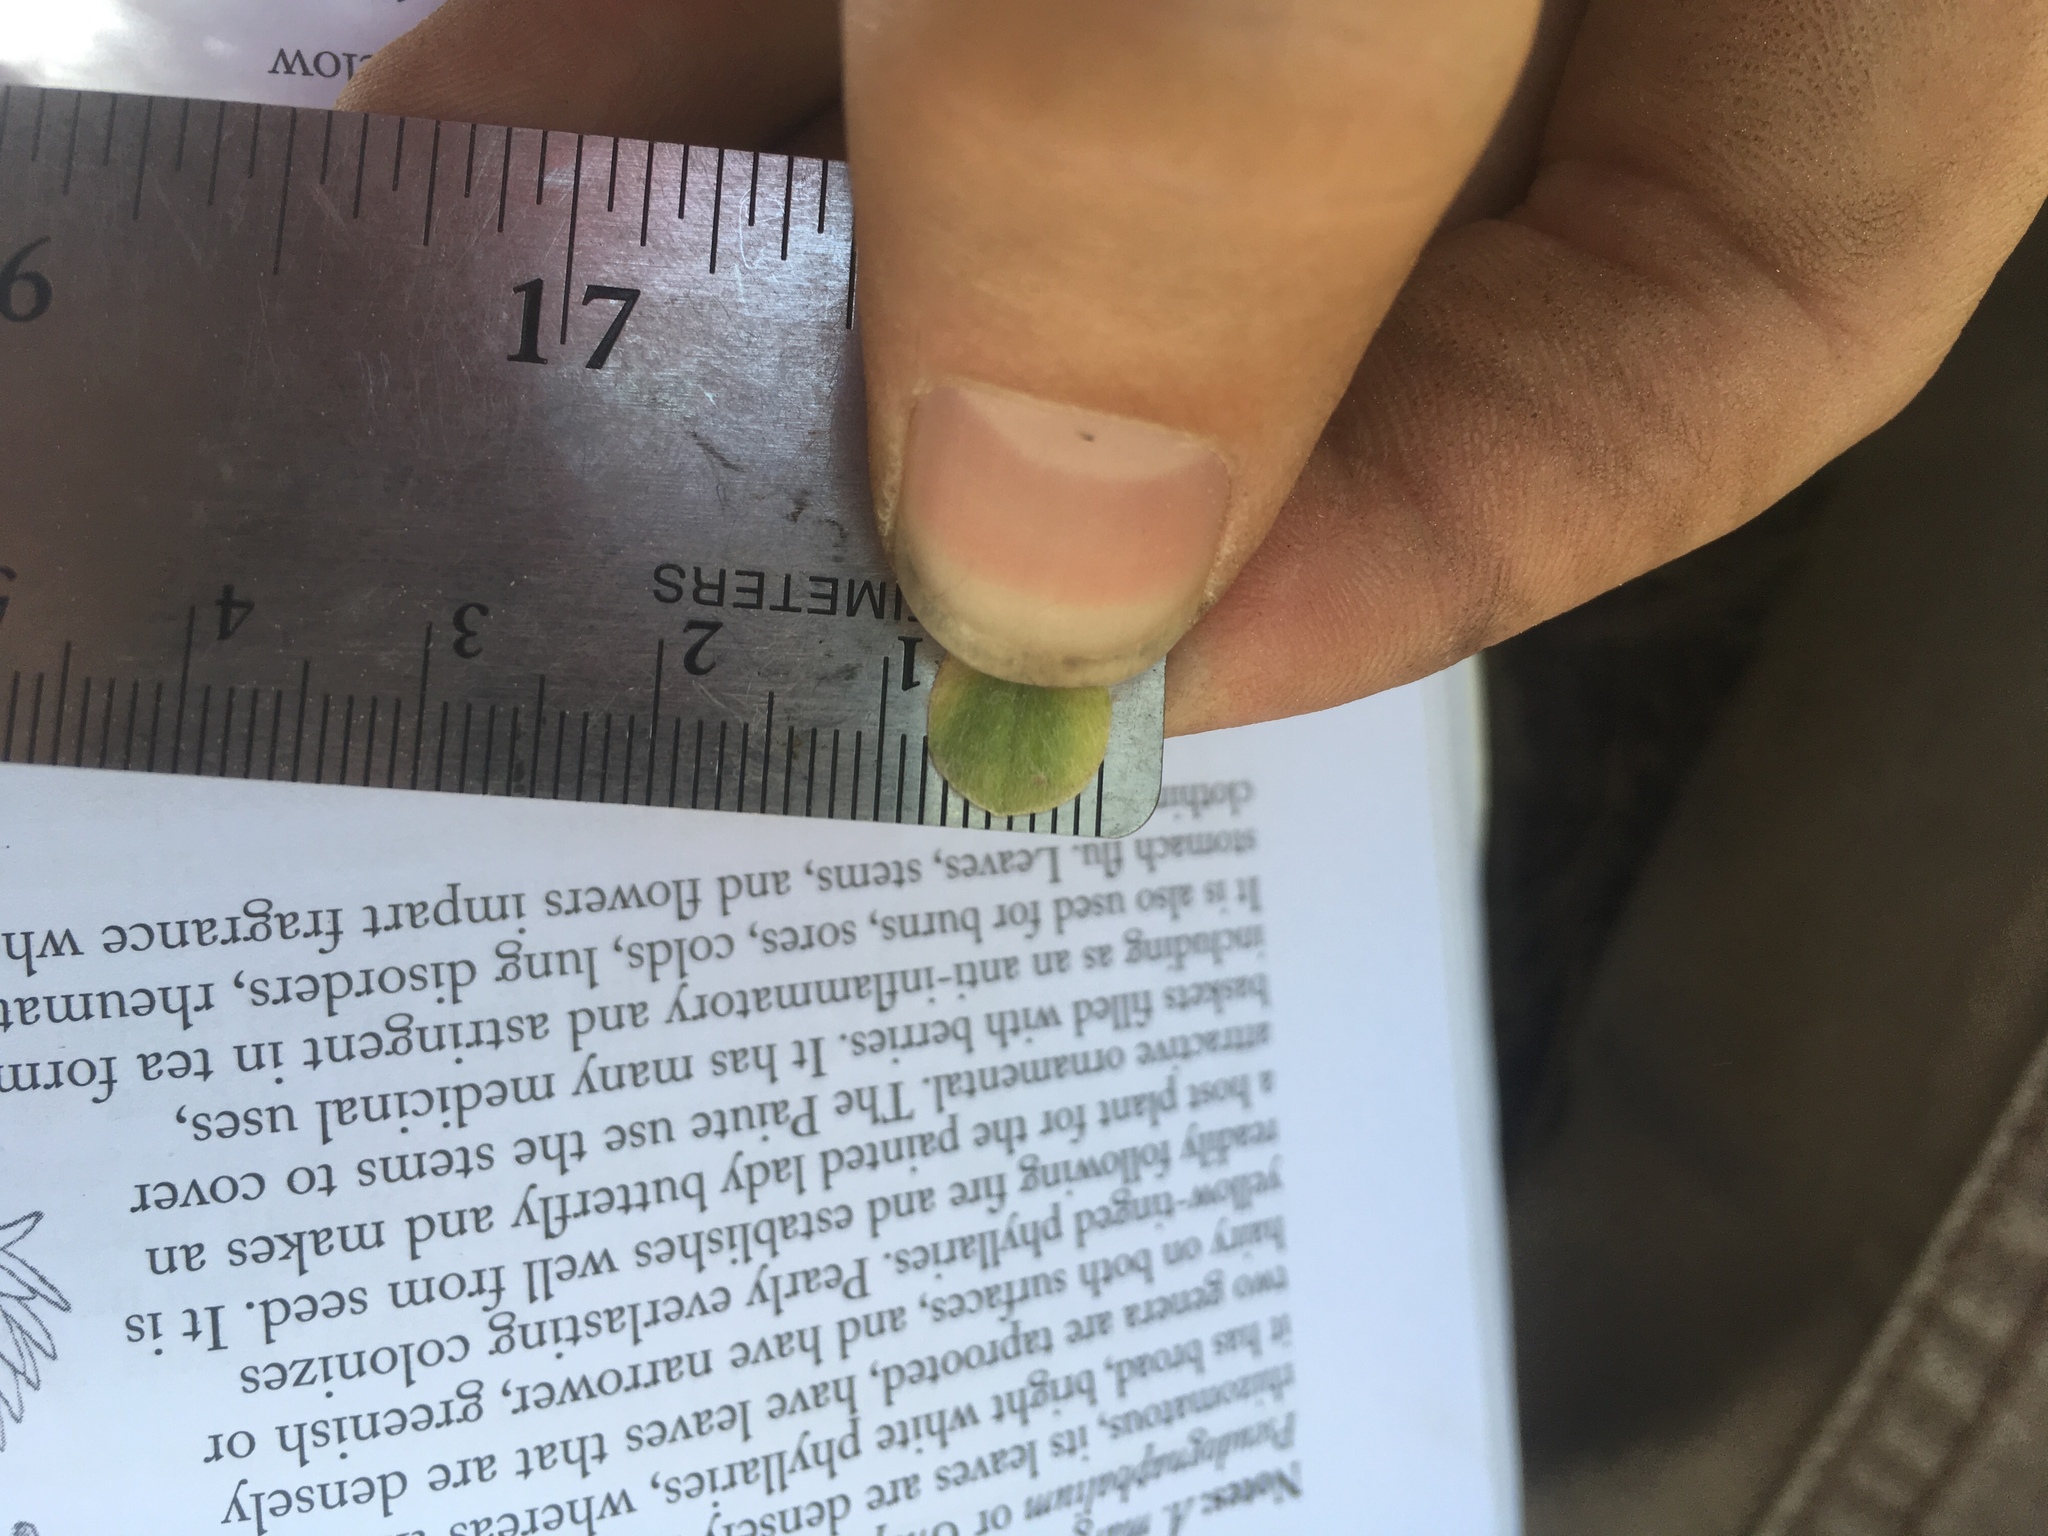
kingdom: Plantae
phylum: Tracheophyta
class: Magnoliopsida
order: Asterales
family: Asteraceae
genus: Antennaria
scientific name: Antennaria parvifolia
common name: Nuttall's pussytoes
